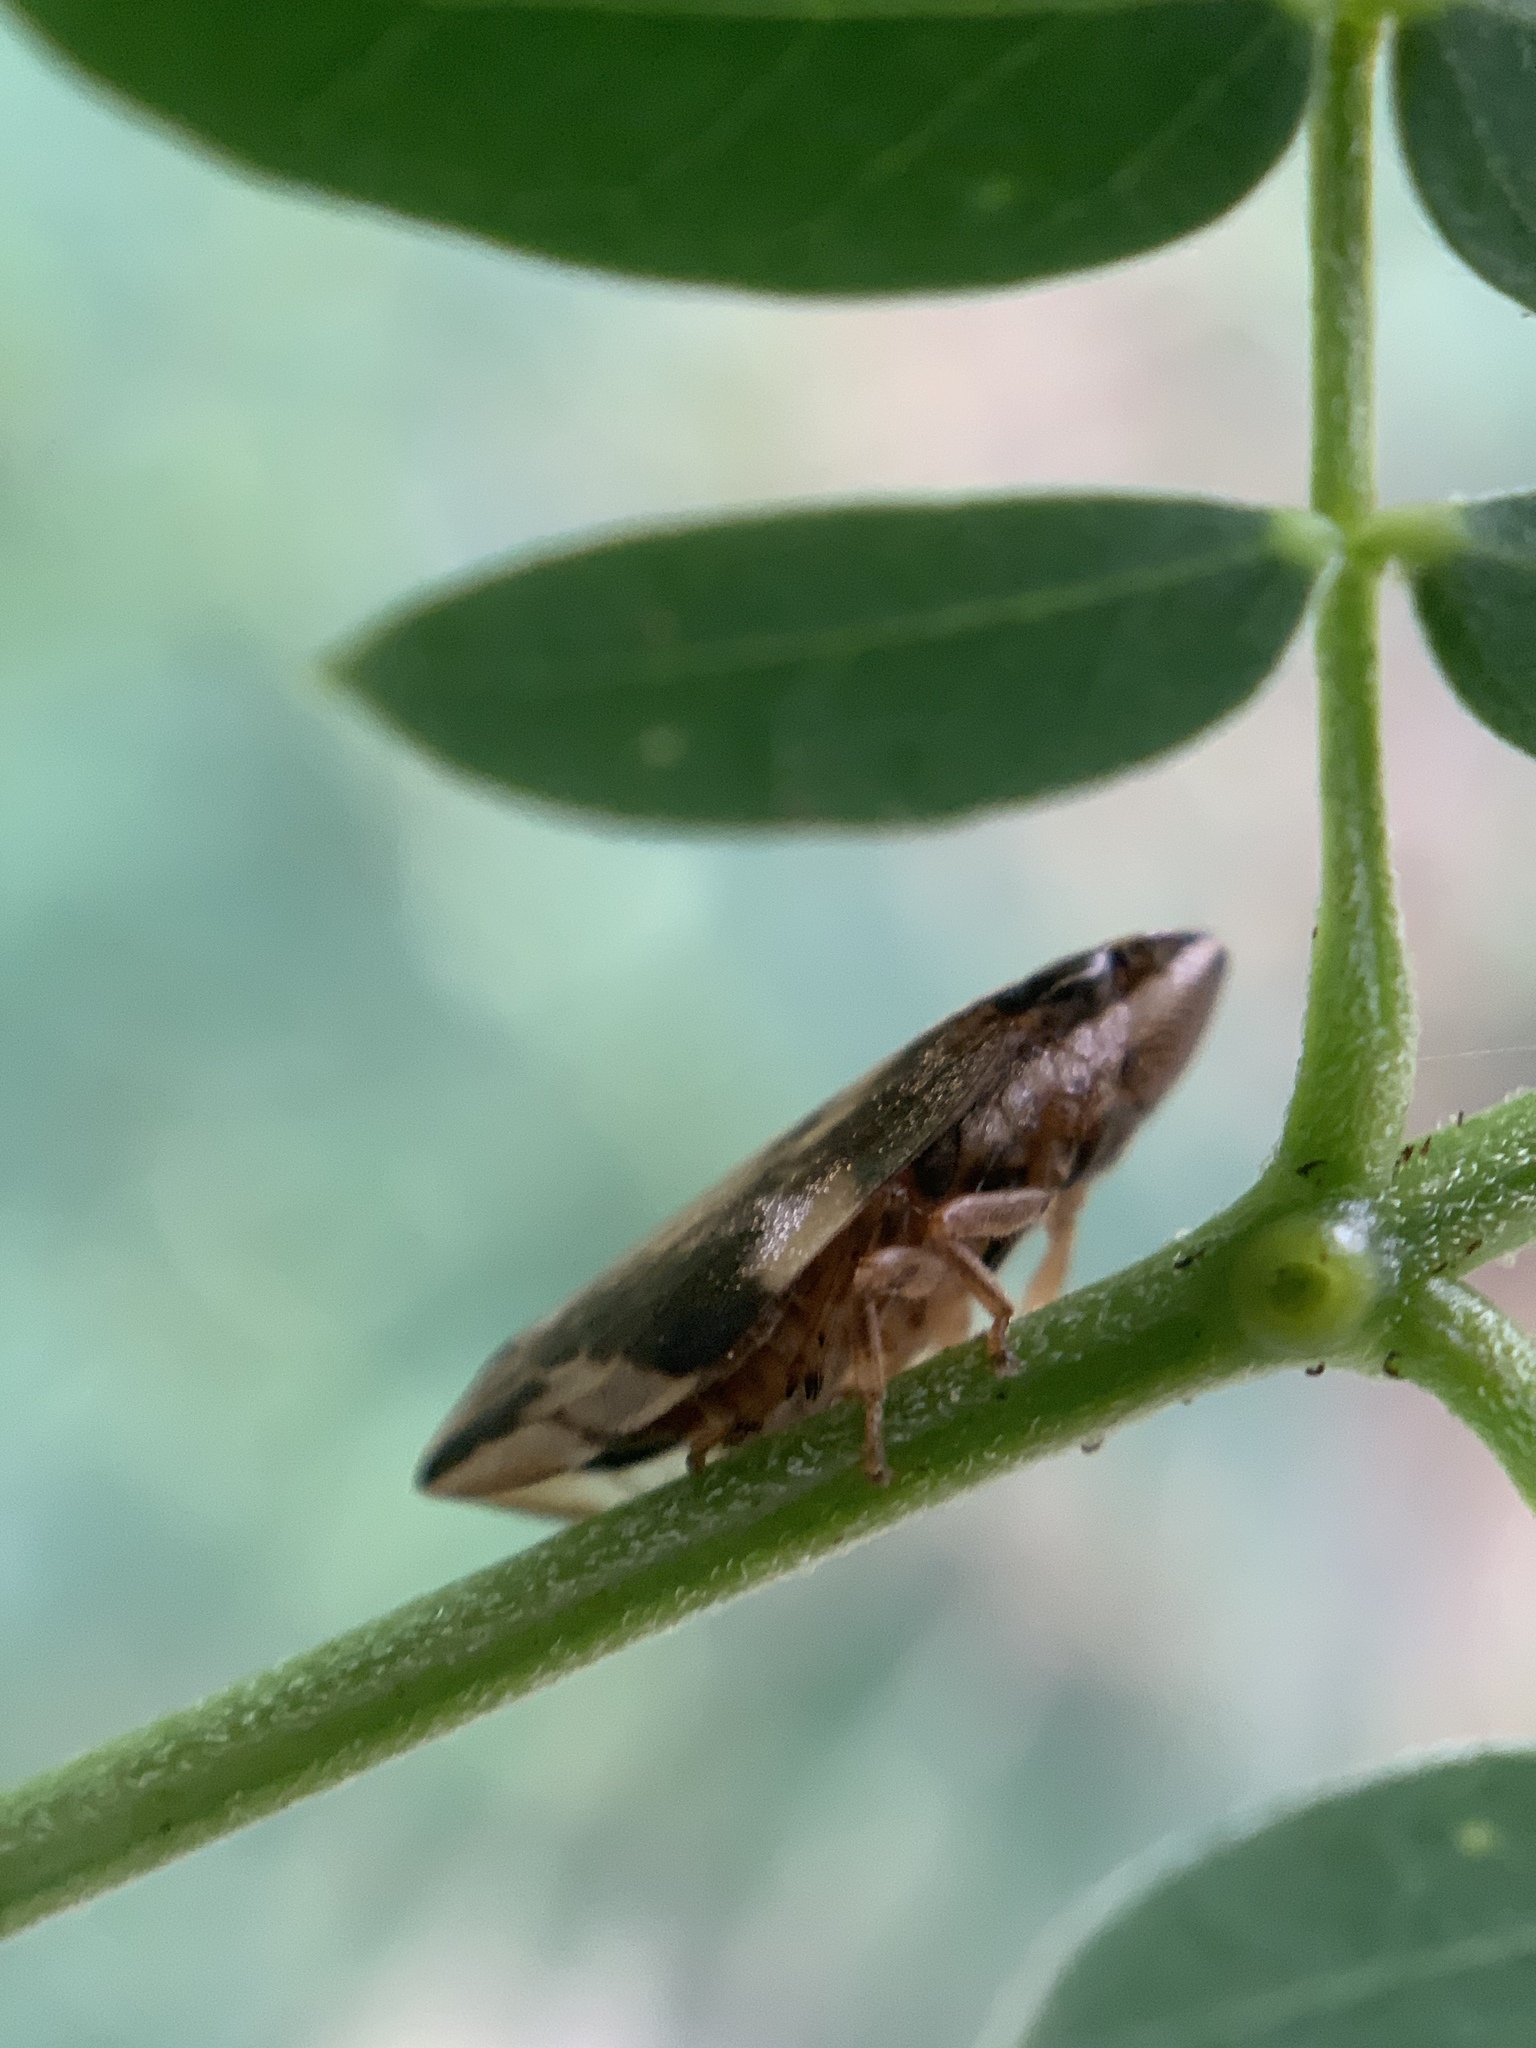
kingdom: Animalia
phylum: Arthropoda
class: Insecta
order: Hemiptera
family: Aphrophoridae
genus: Clovia
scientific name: Clovia conifera
